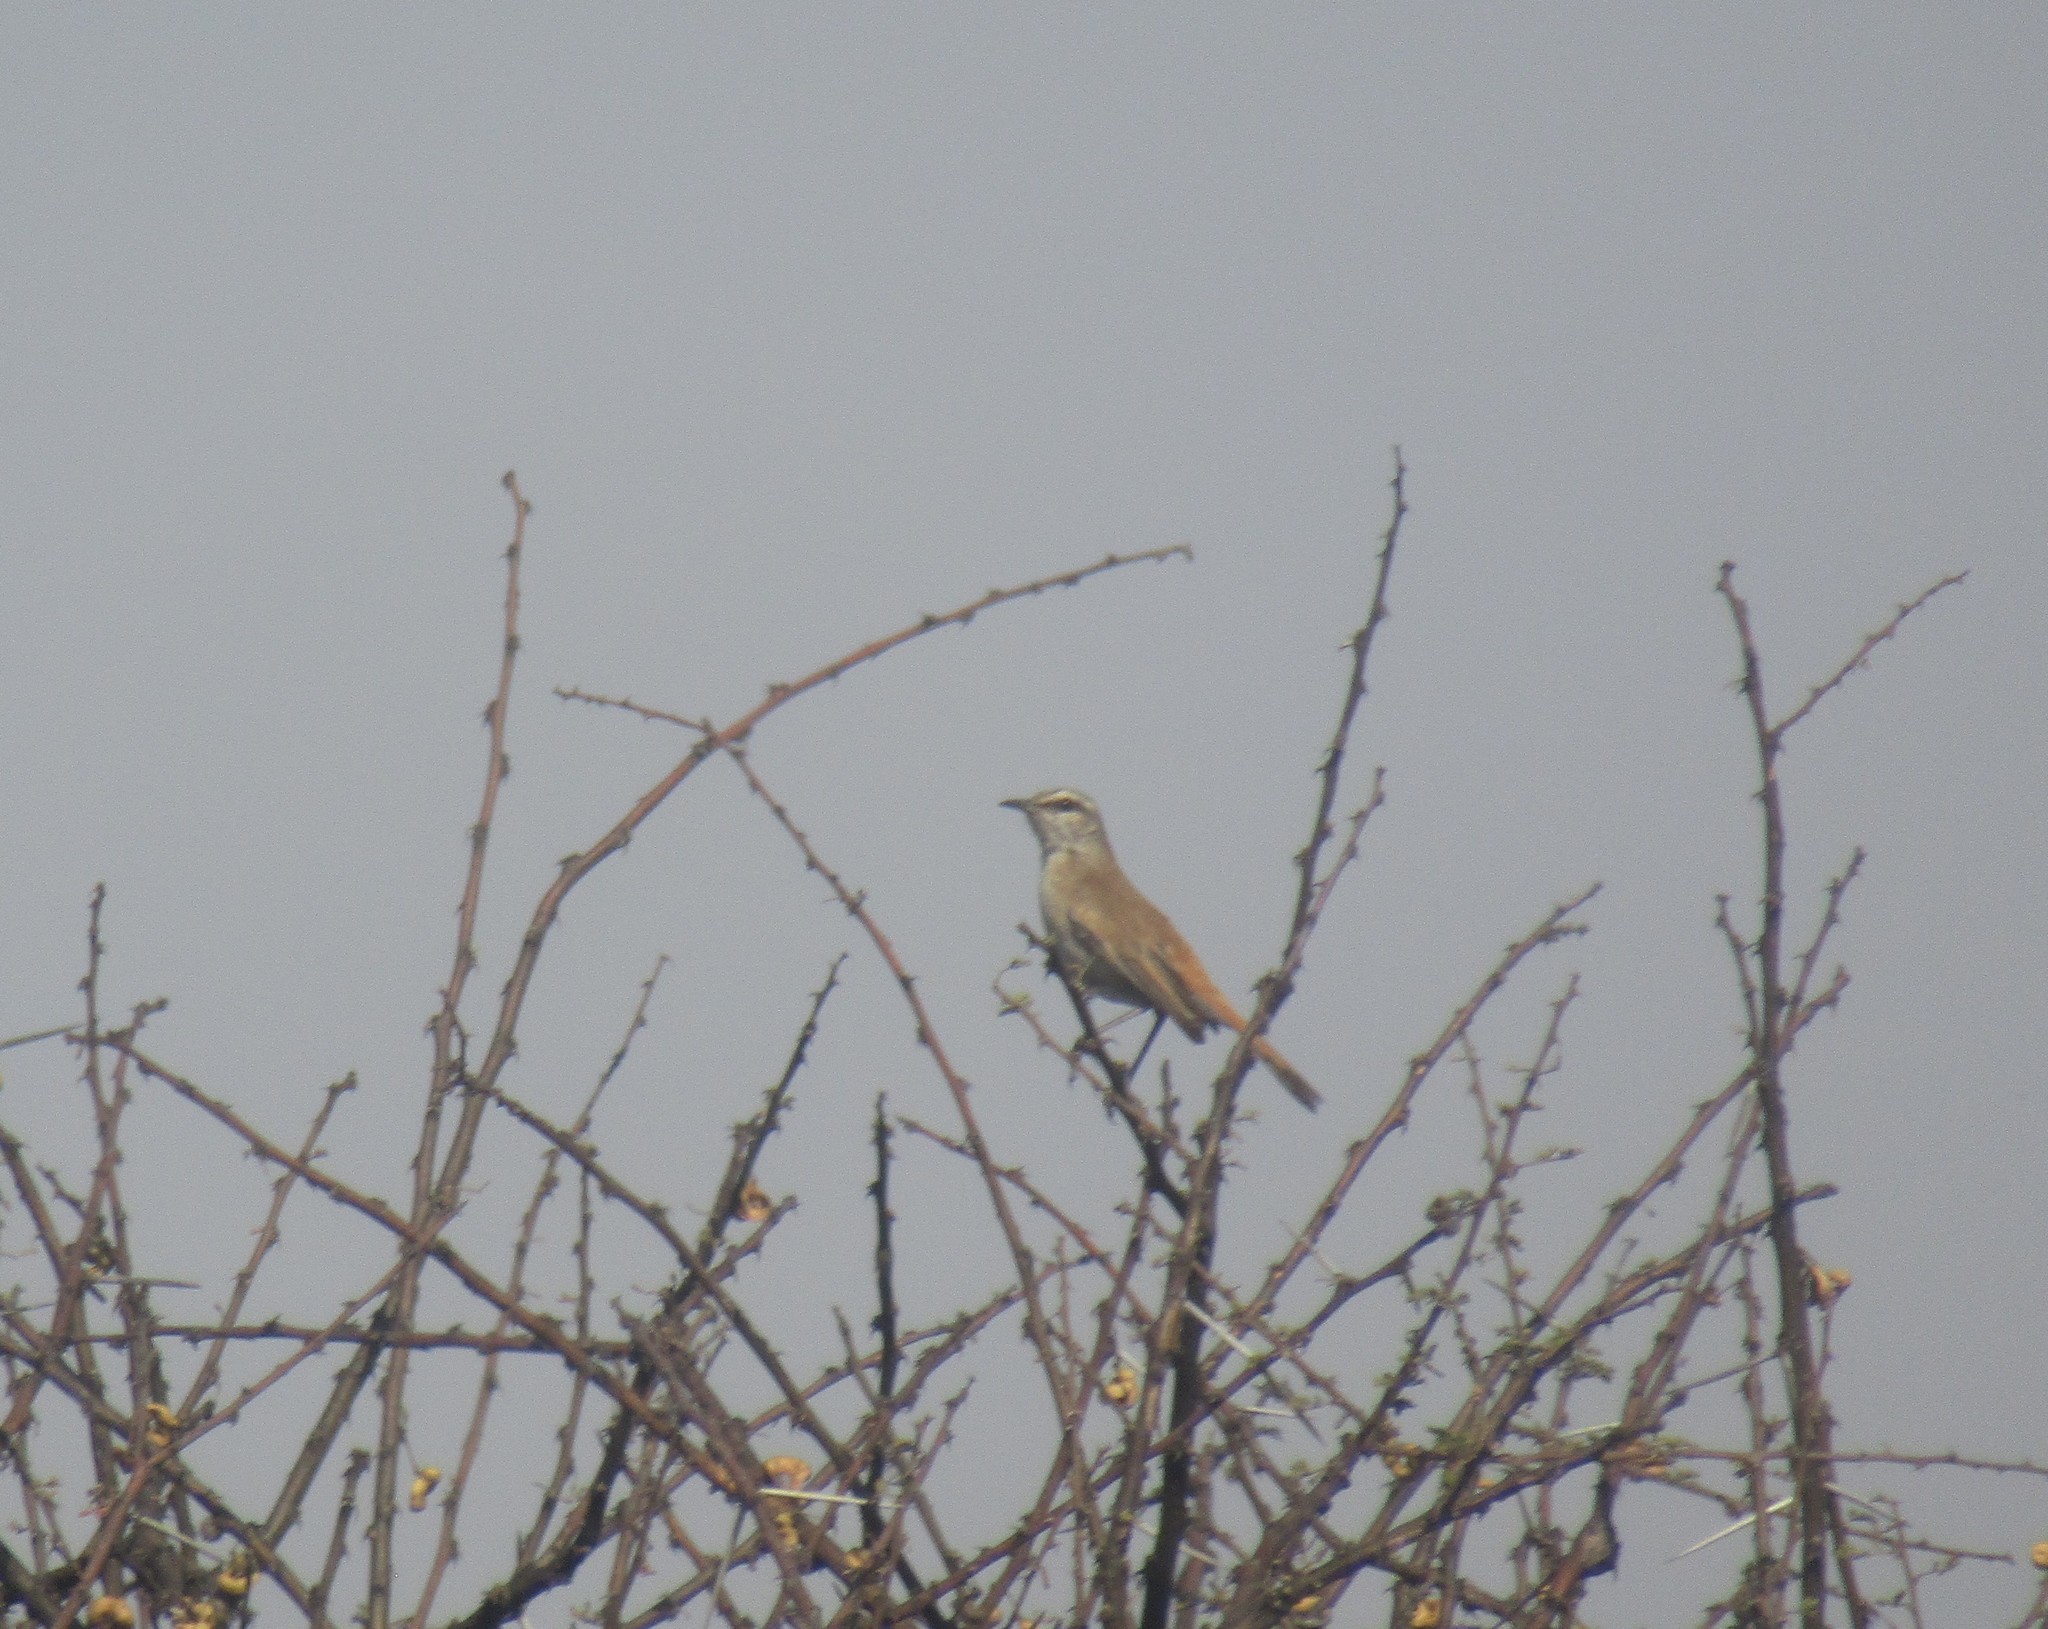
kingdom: Animalia
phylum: Chordata
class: Aves
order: Passeriformes
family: Muscicapidae
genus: Erythropygia
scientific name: Erythropygia paena
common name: Kalahari scrub robin
